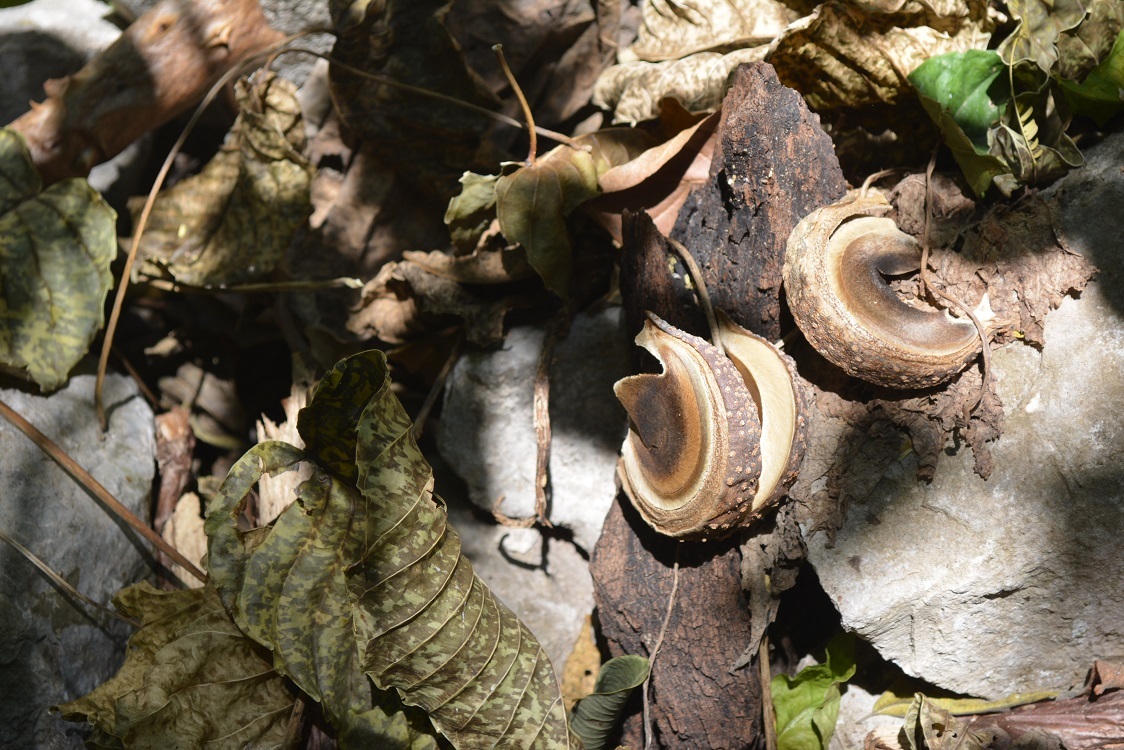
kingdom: Plantae
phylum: Tracheophyta
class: Magnoliopsida
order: Malpighiales
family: Euphorbiaceae
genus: Hura
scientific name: Hura polyandra
